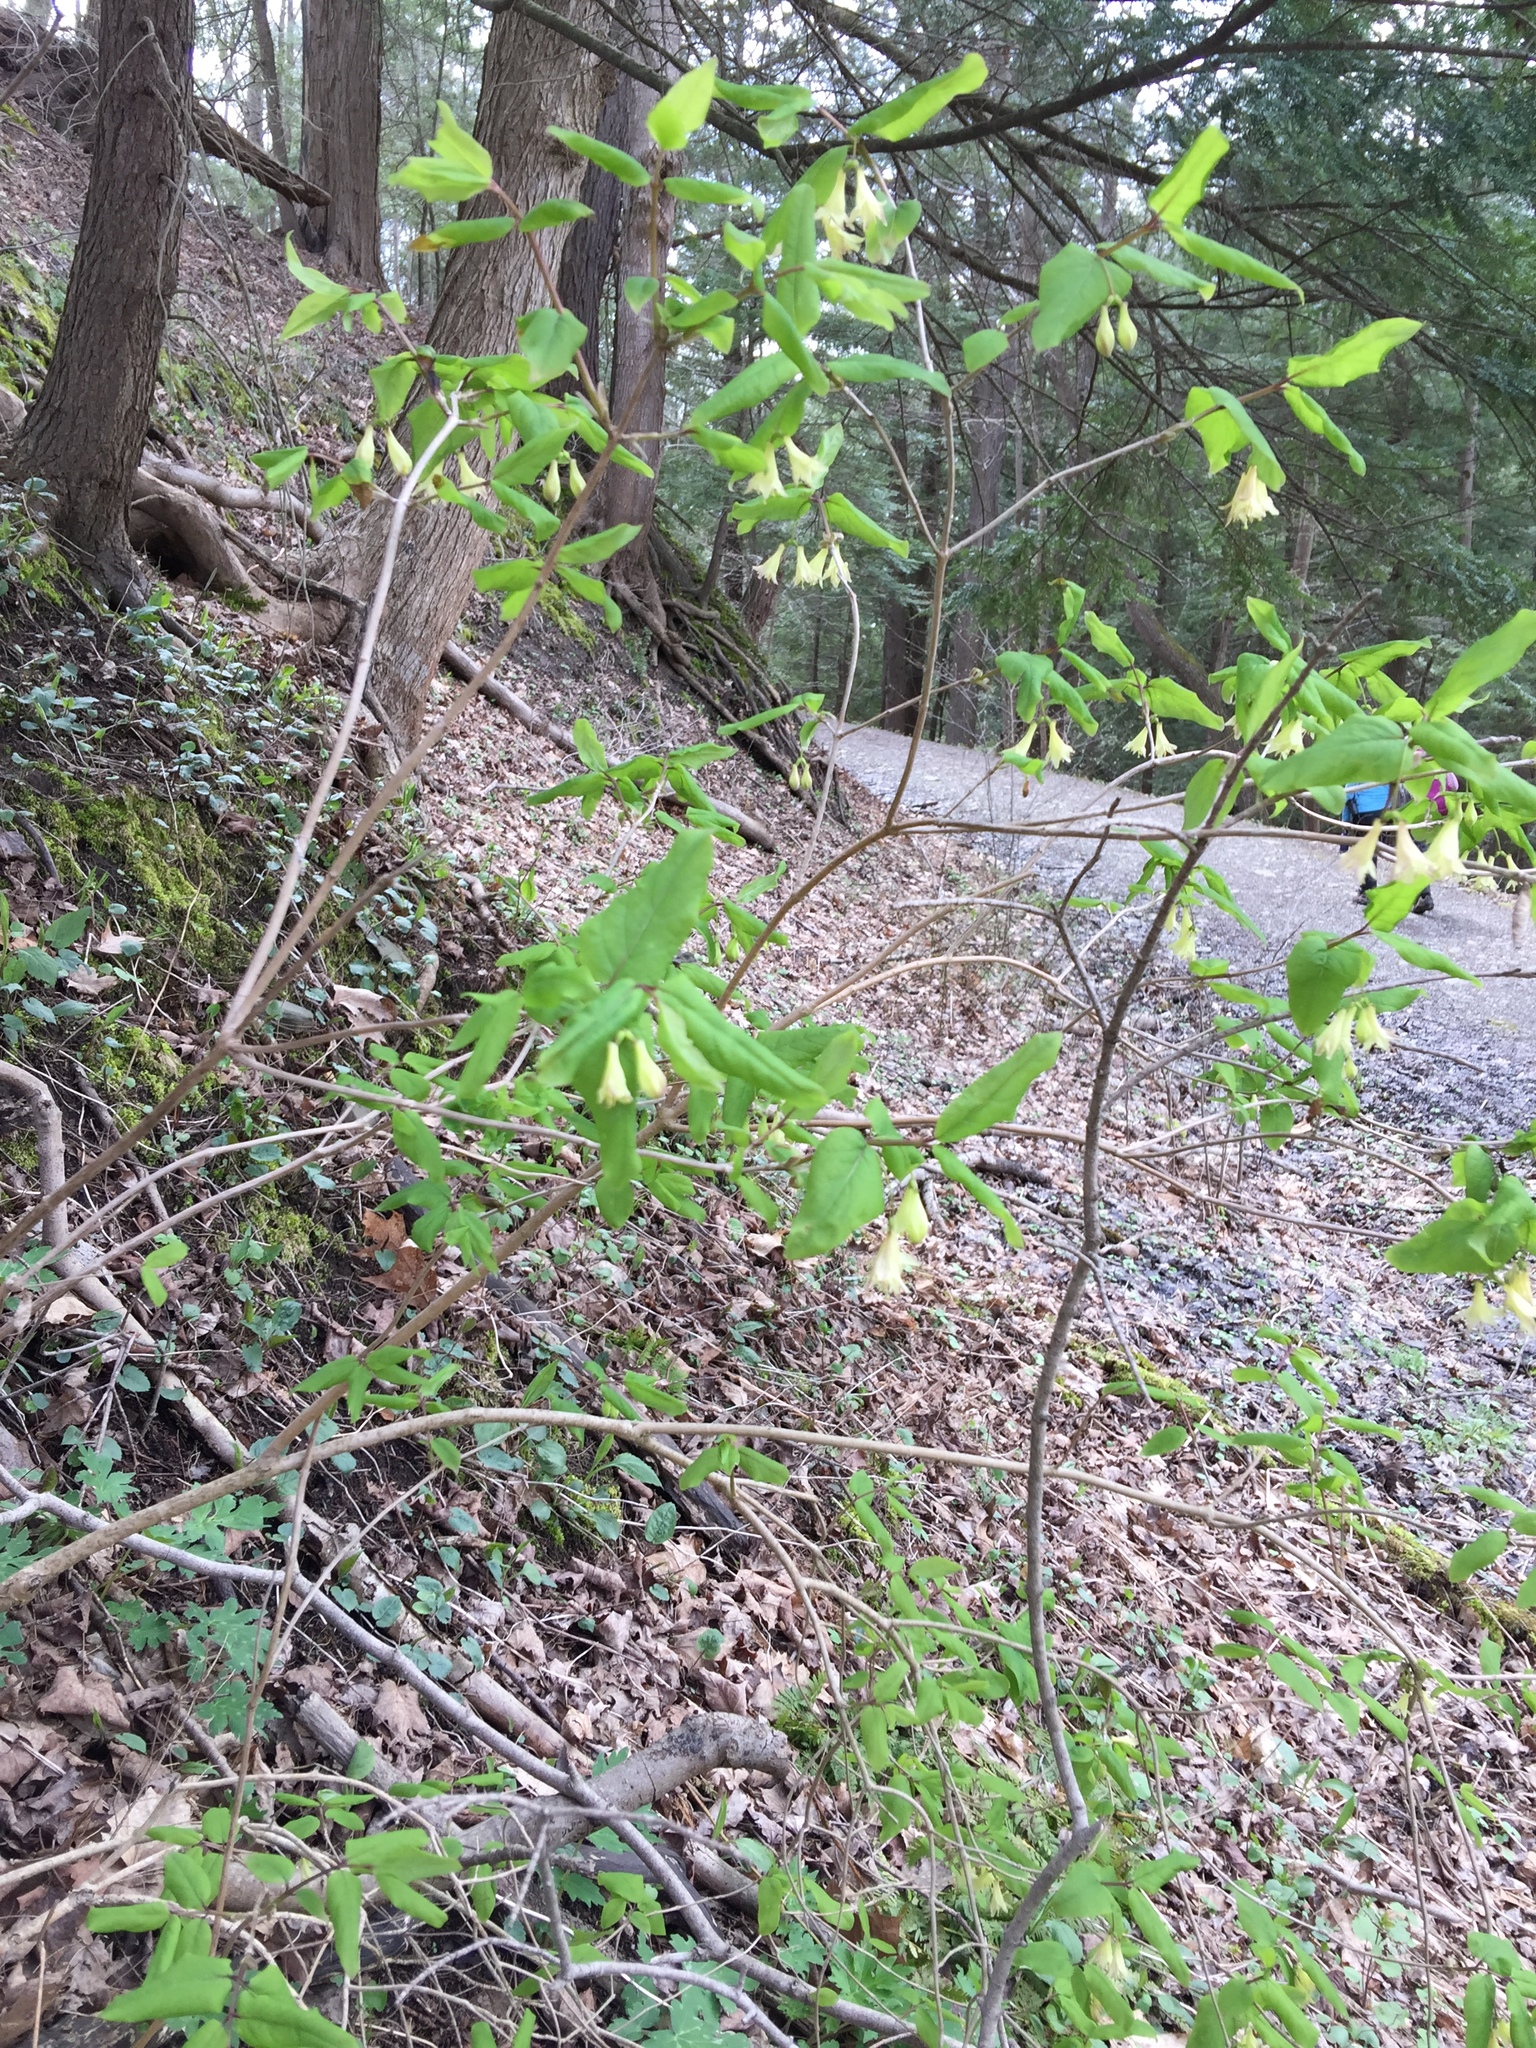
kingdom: Plantae
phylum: Tracheophyta
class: Magnoliopsida
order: Dipsacales
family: Caprifoliaceae
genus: Lonicera
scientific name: Lonicera canadensis
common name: American fly-honeysuckle
